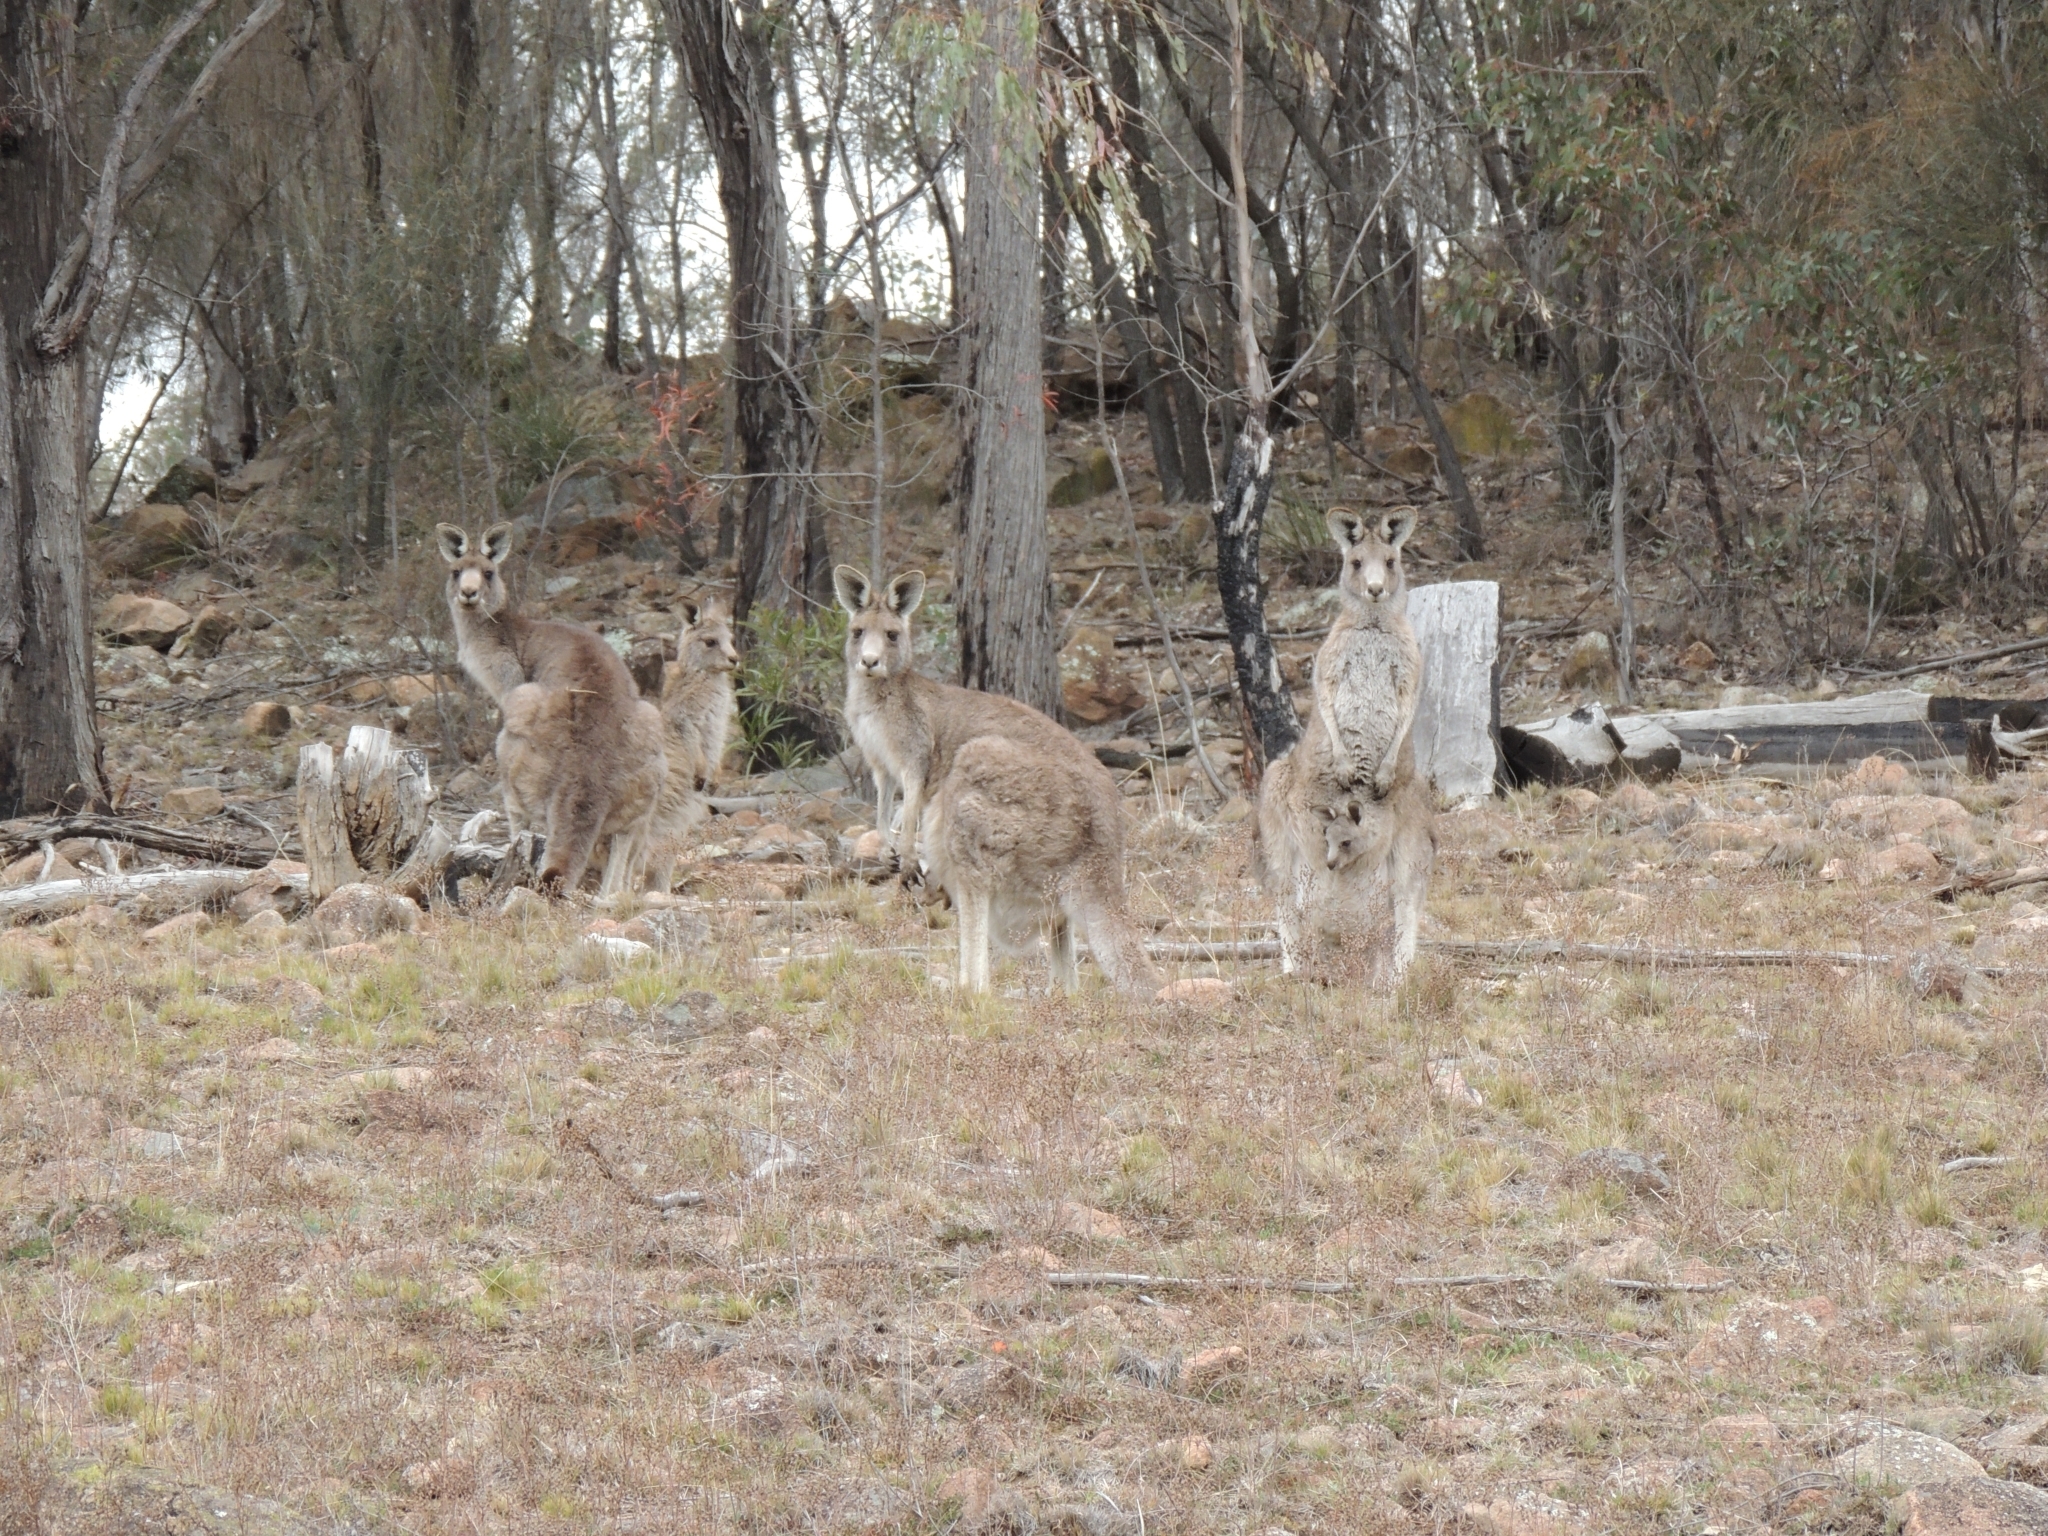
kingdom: Animalia
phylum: Chordata
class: Mammalia
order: Diprotodontia
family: Macropodidae
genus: Macropus
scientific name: Macropus giganteus
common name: Eastern grey kangaroo
